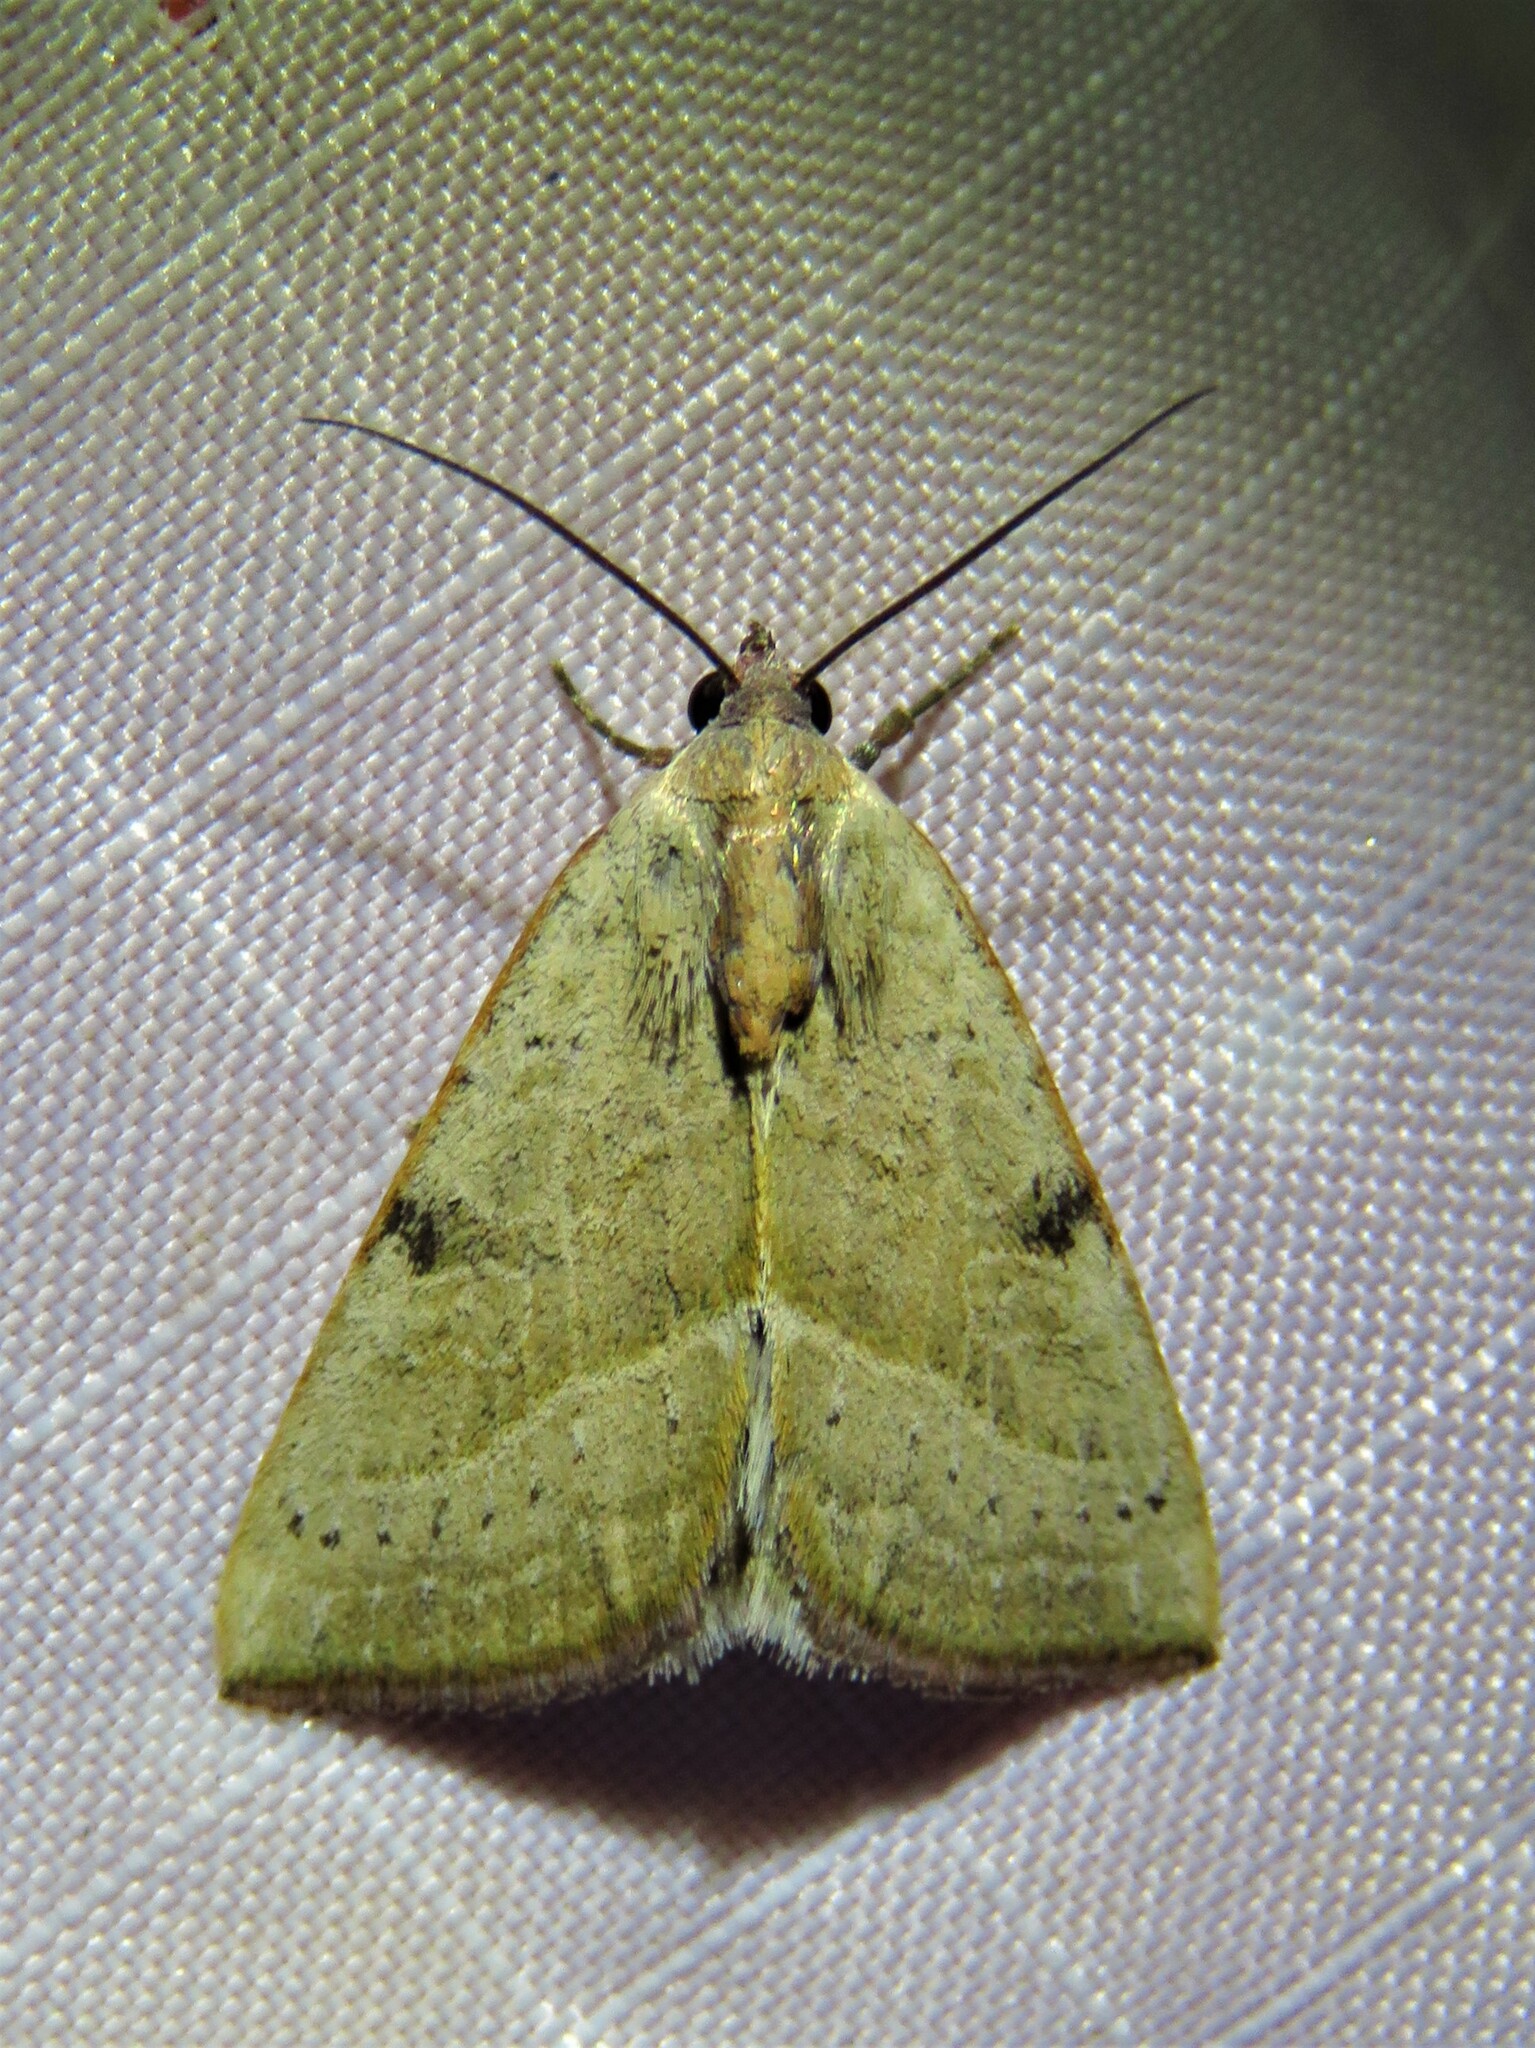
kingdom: Animalia
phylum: Arthropoda
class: Insecta
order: Lepidoptera
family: Noctuidae
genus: Galgula
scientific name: Galgula partita
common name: Wedgeling
